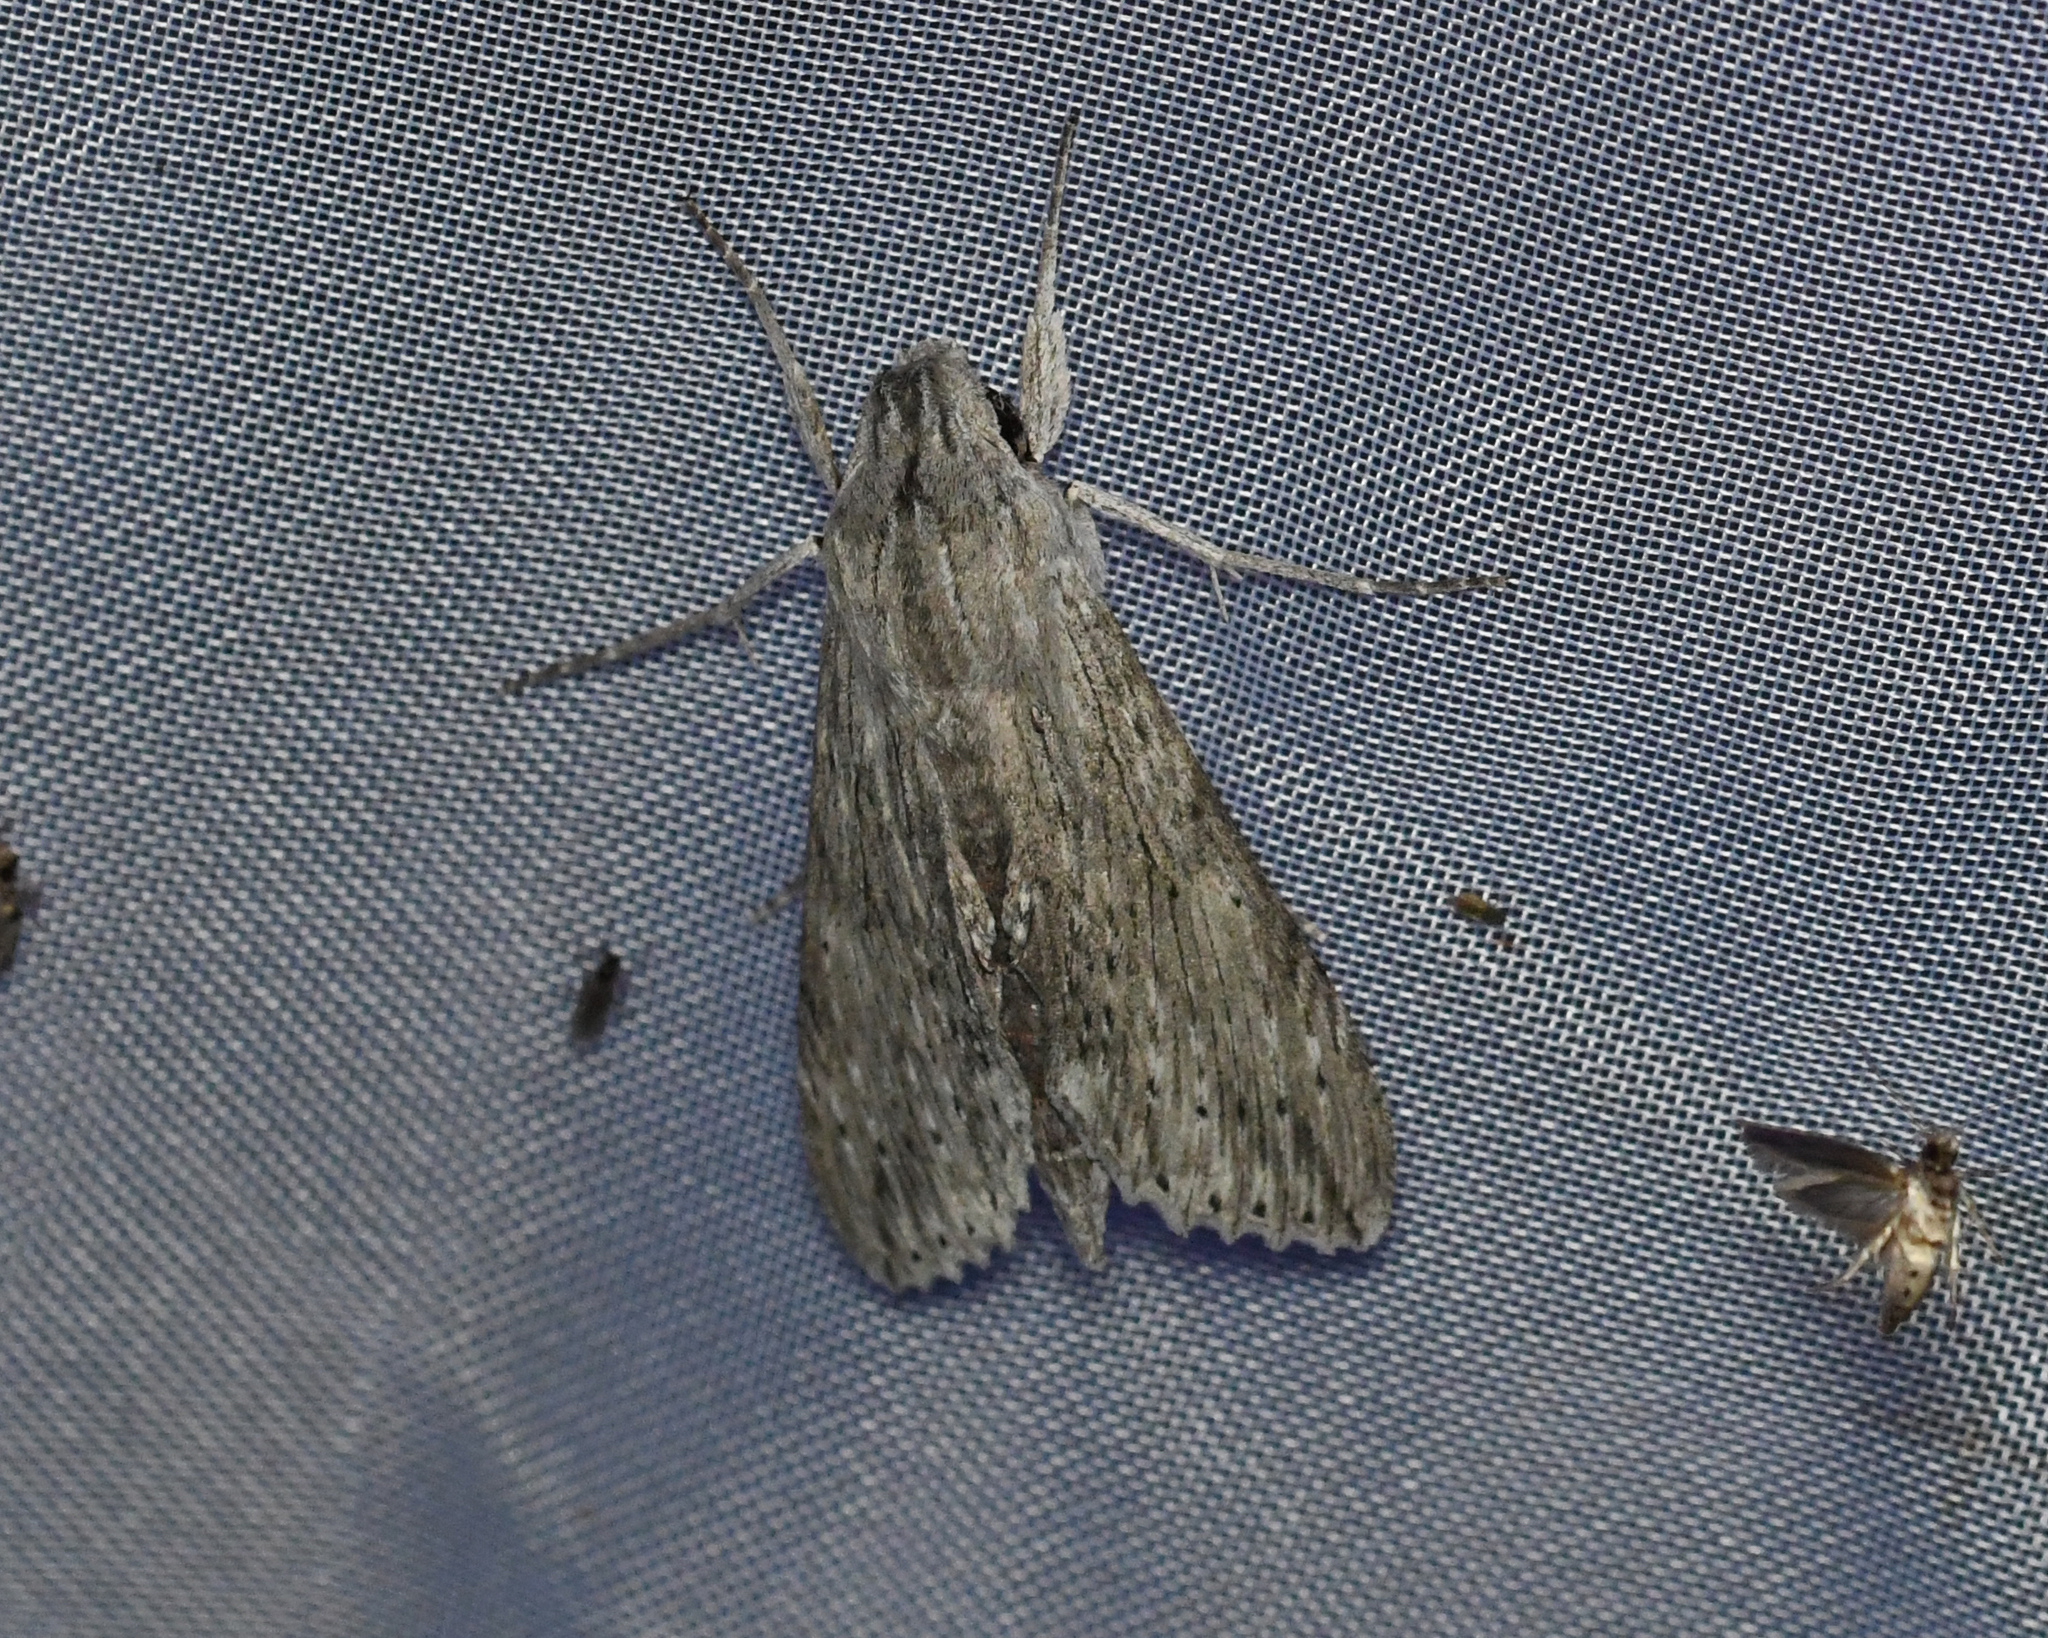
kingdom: Animalia
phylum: Arthropoda
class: Insecta
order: Lepidoptera
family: Sphingidae
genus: Erinnyis
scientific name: Erinnyis guttularis
